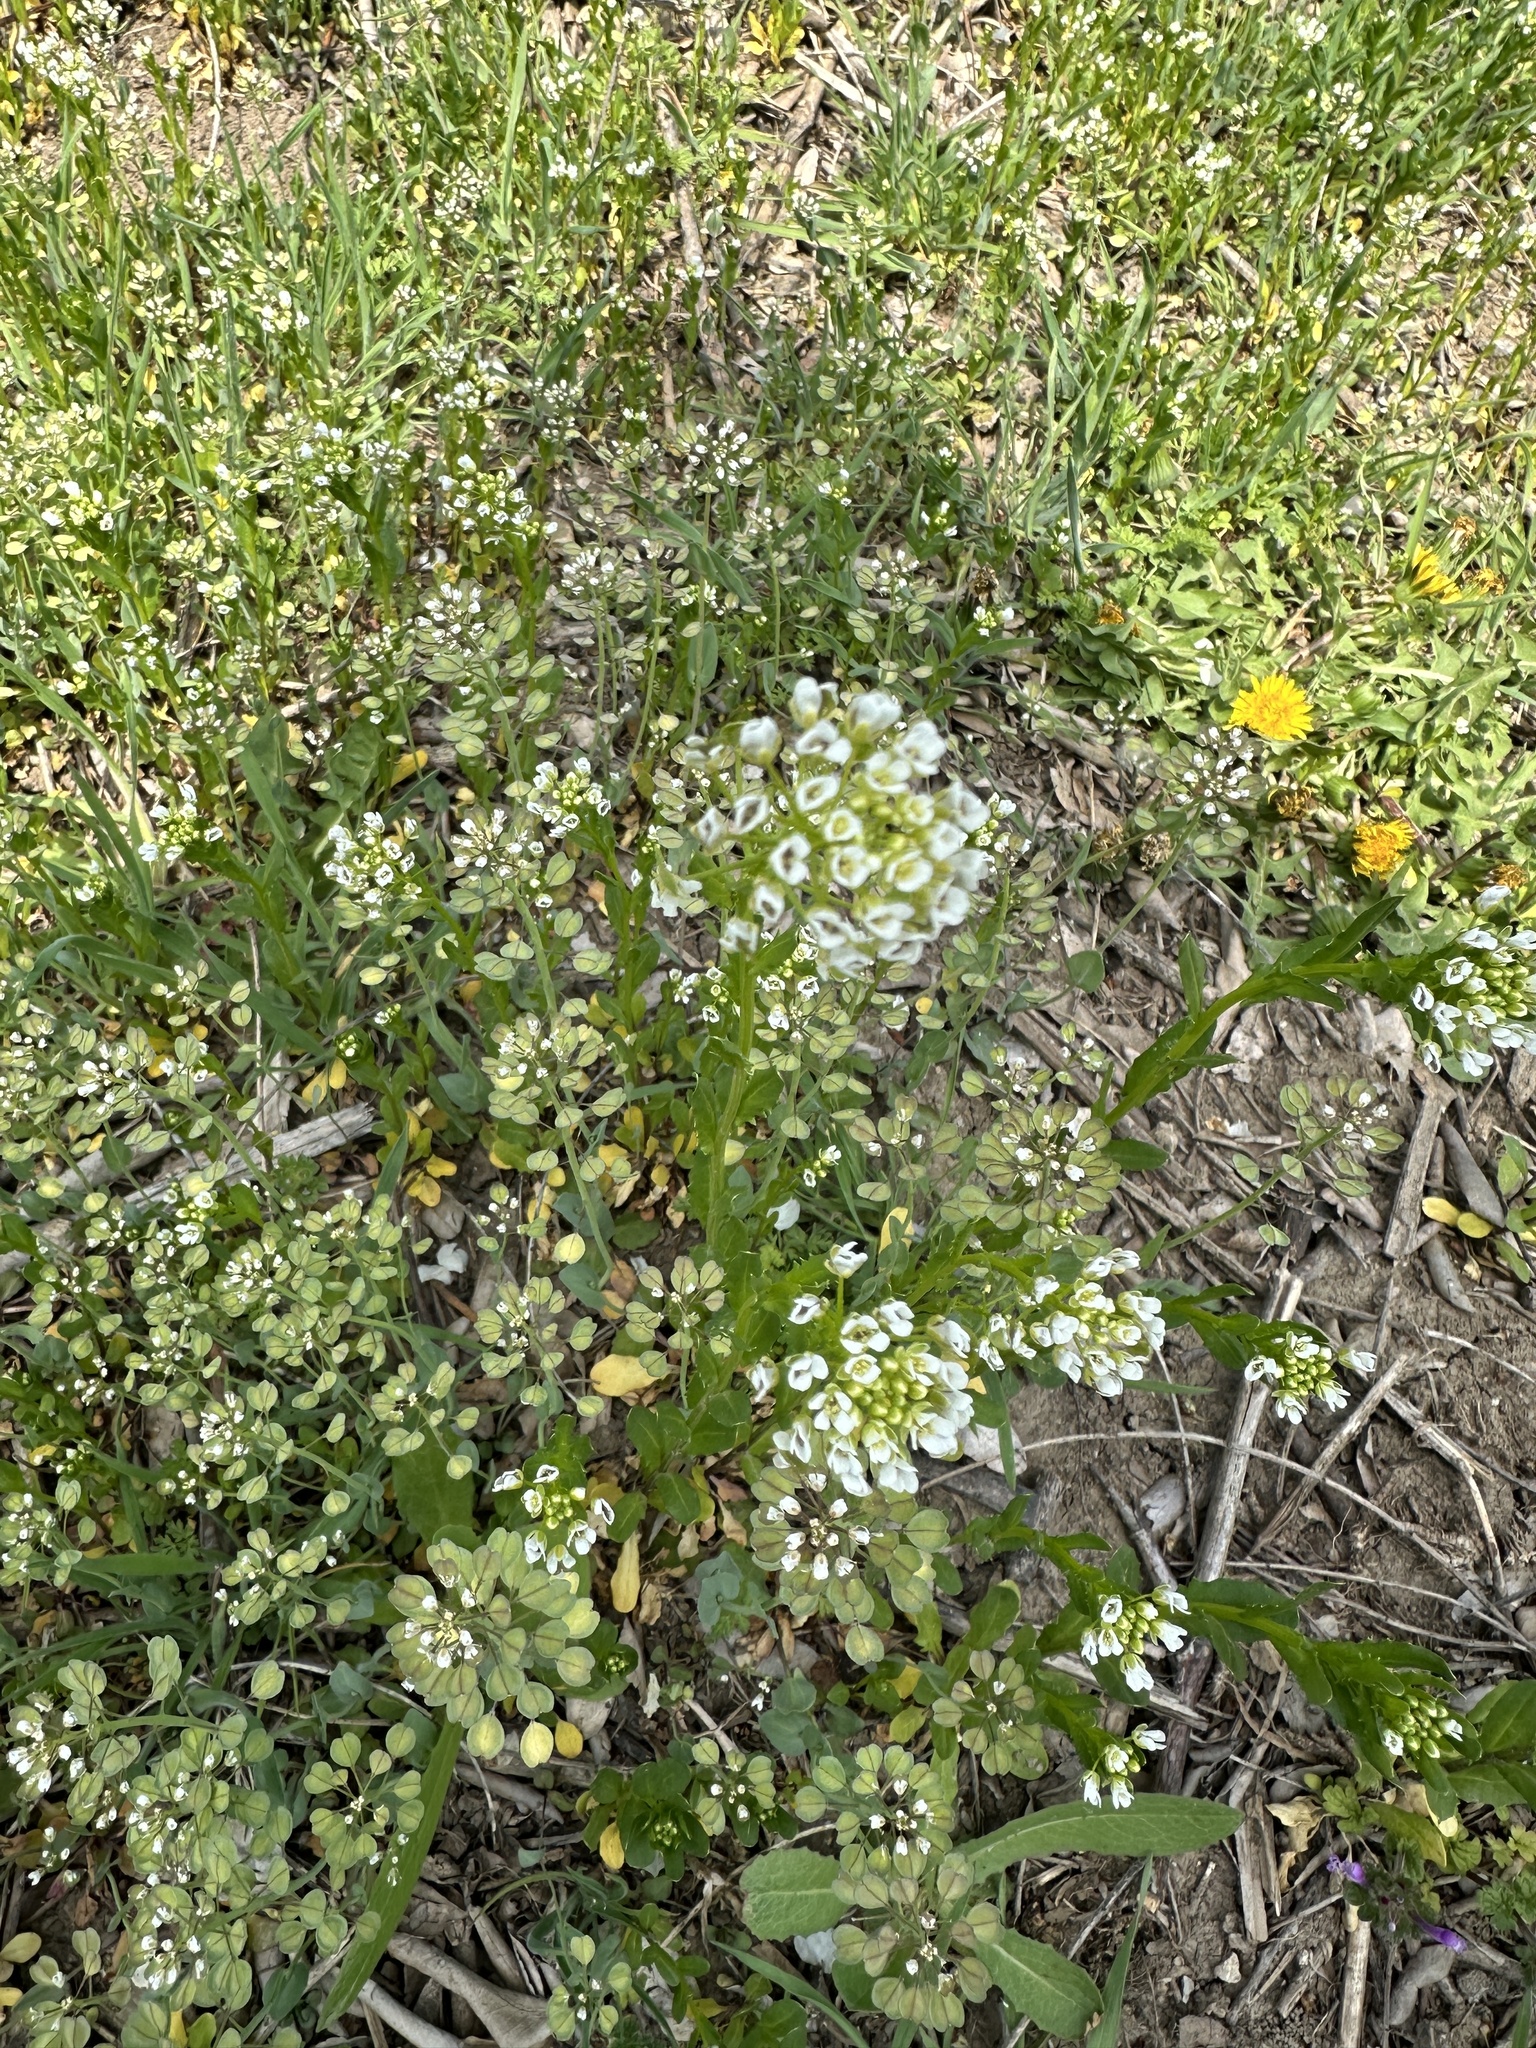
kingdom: Plantae
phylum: Tracheophyta
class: Magnoliopsida
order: Brassicales
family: Brassicaceae
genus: Noccaea
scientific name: Noccaea perfoliata
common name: Perfoliate pennycress
